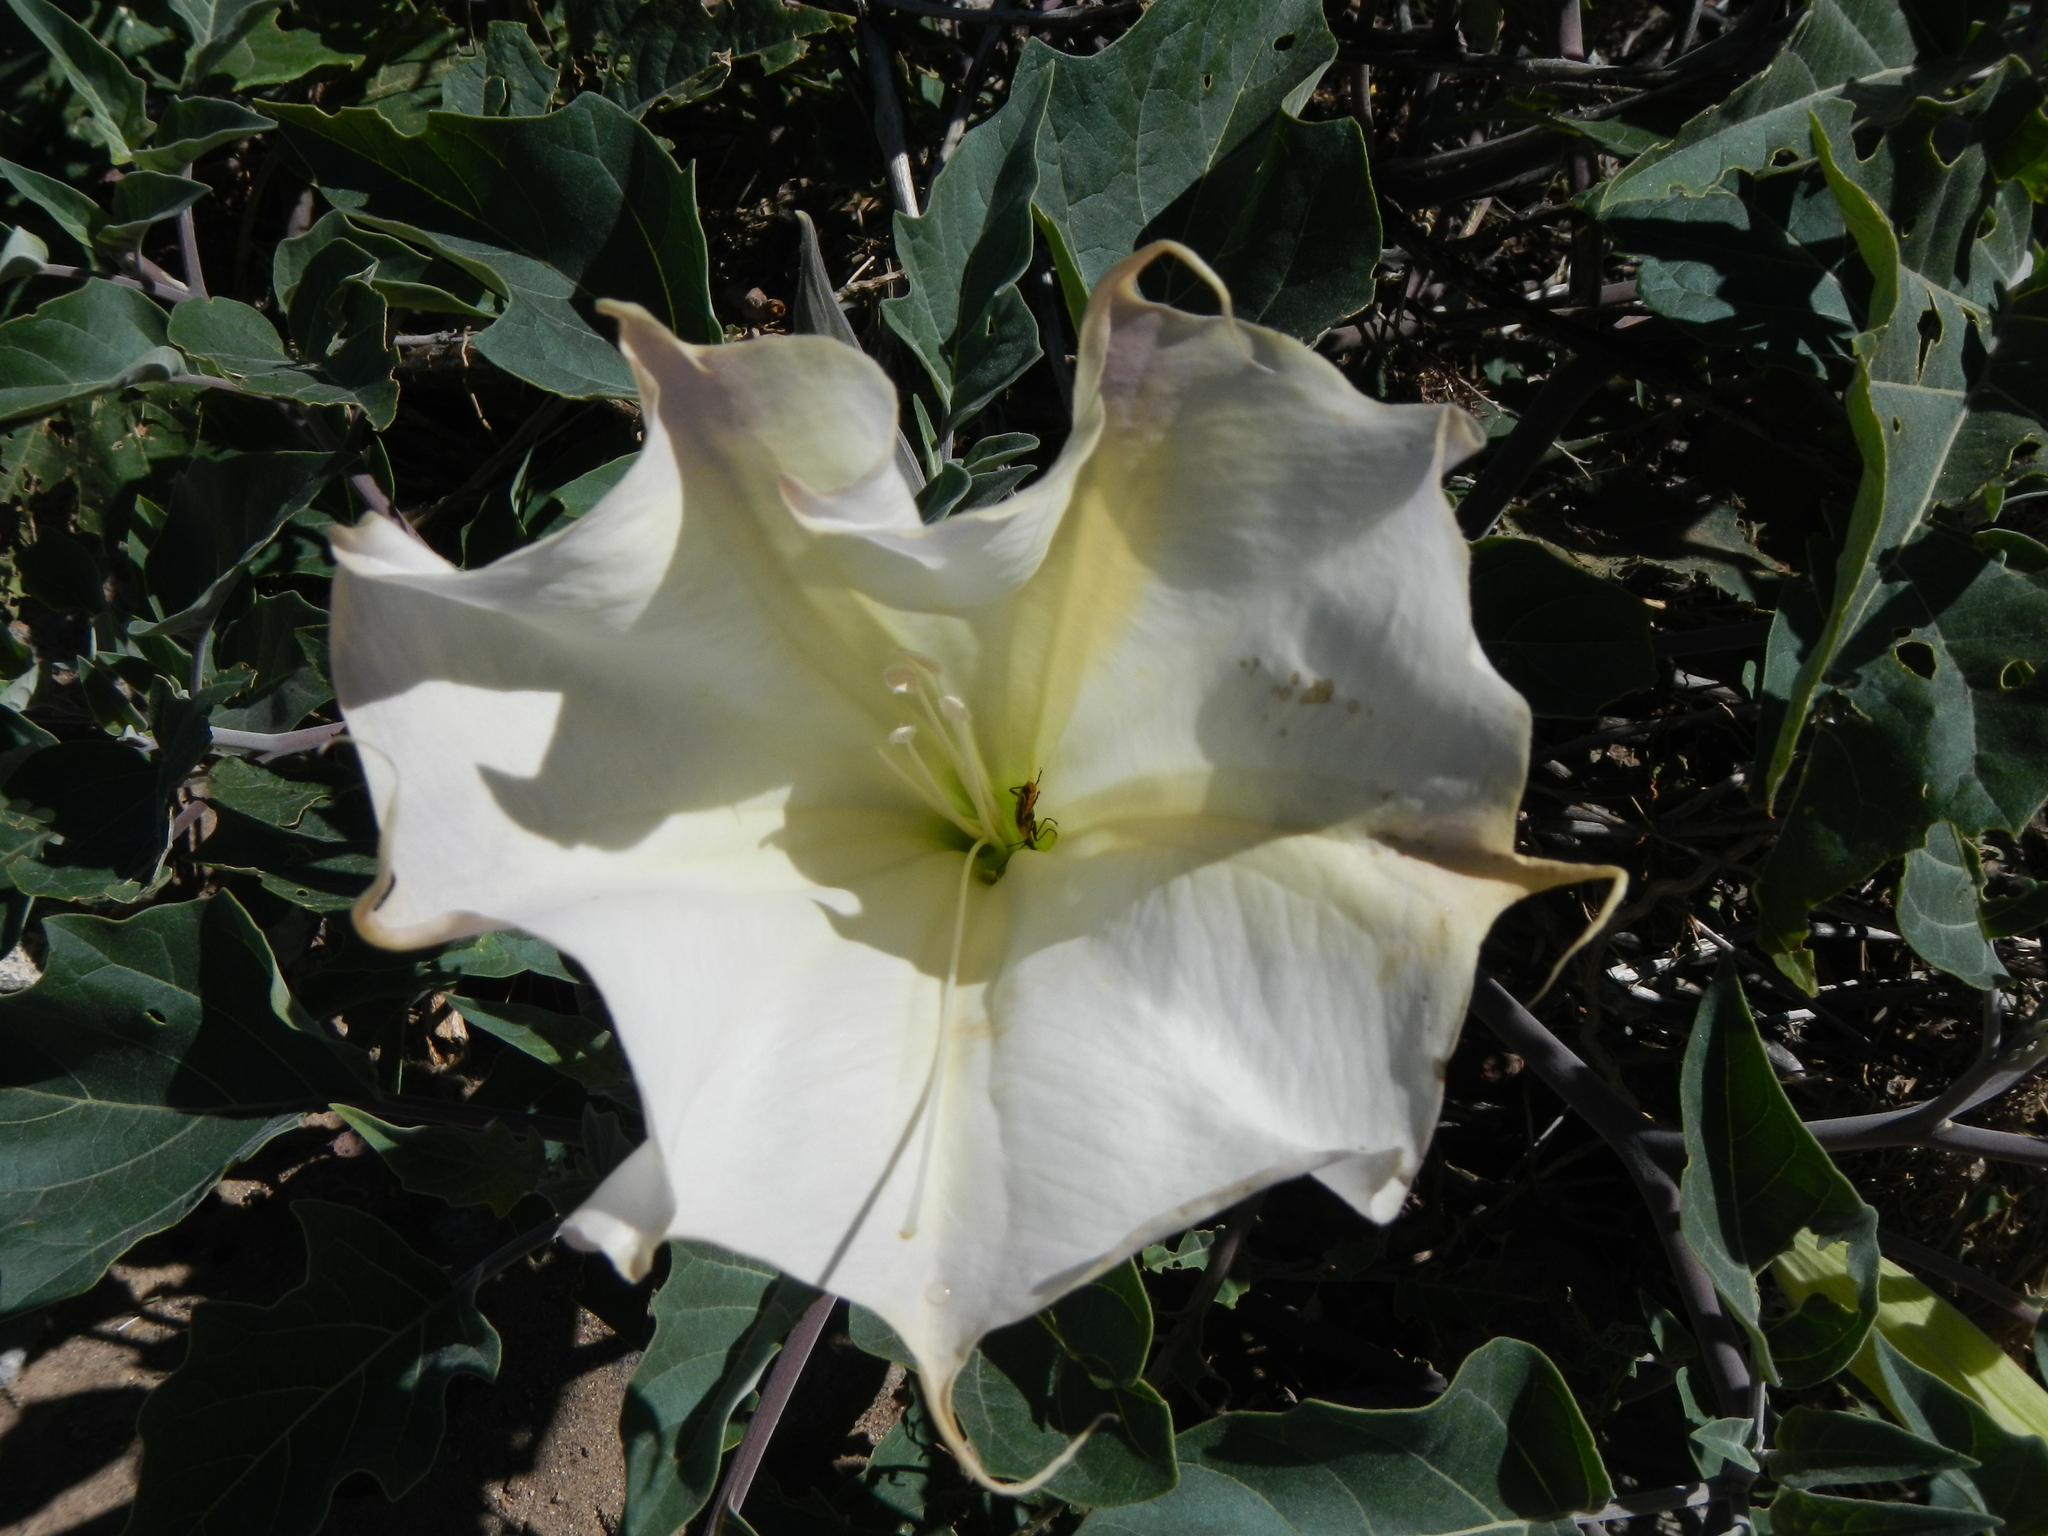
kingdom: Plantae
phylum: Tracheophyta
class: Magnoliopsida
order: Solanales
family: Solanaceae
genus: Datura
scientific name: Datura wrightii
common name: Sacred thorn-apple
